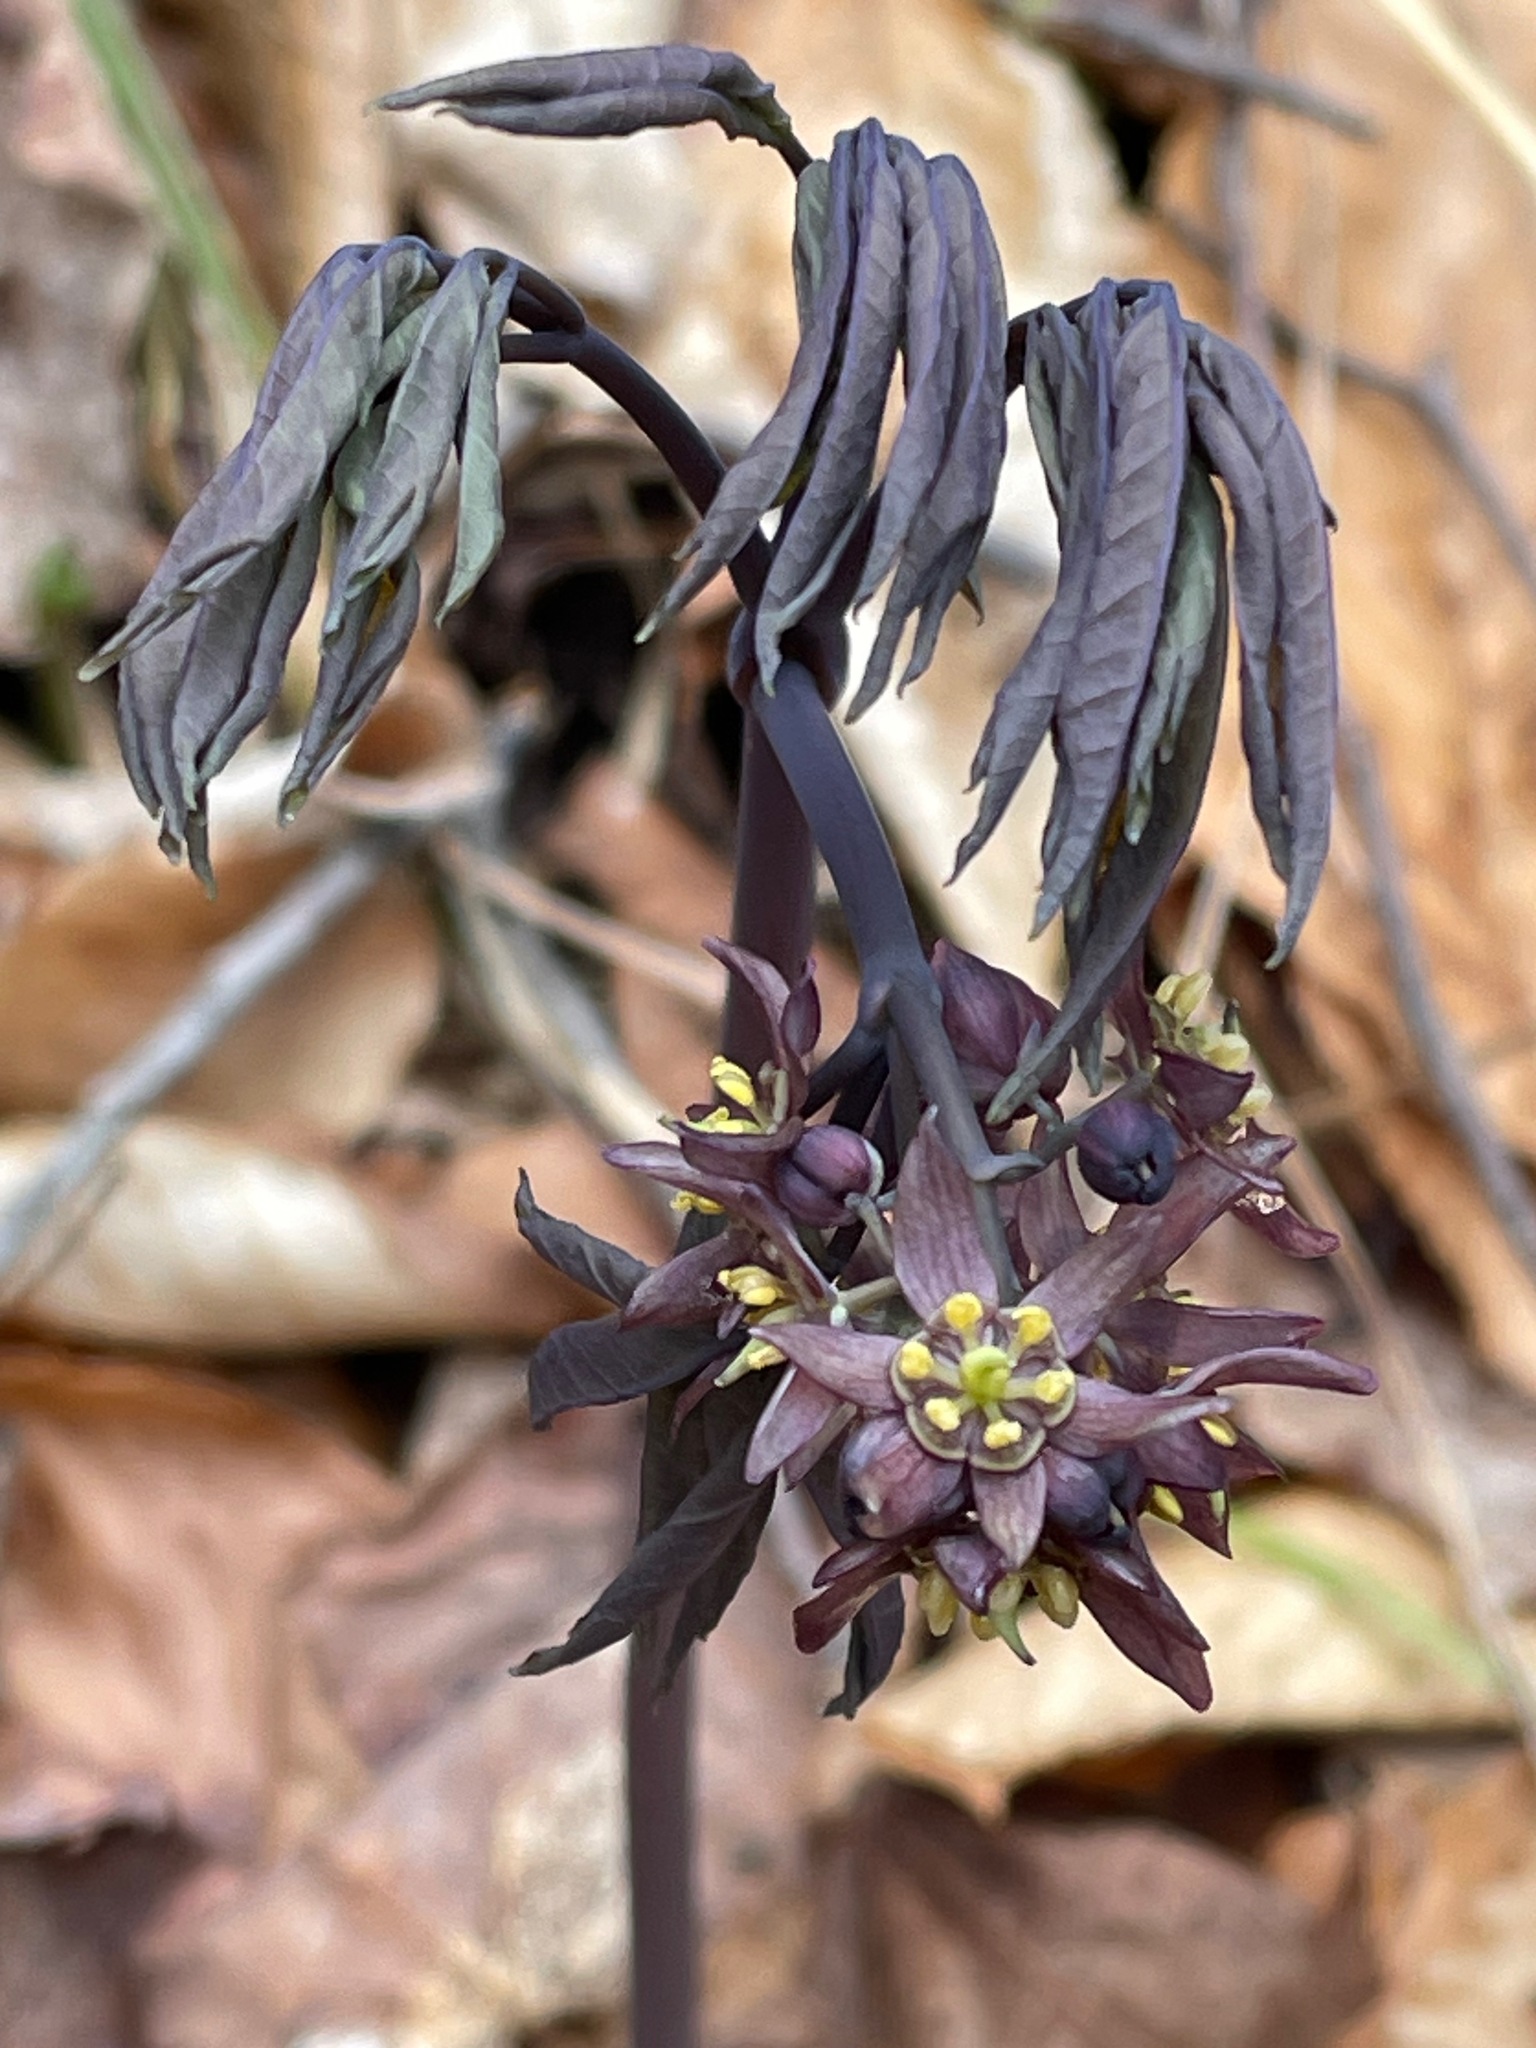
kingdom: Plantae
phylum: Tracheophyta
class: Magnoliopsida
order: Ranunculales
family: Berberidaceae
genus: Caulophyllum
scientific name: Caulophyllum giganteum
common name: Blue cohosh
